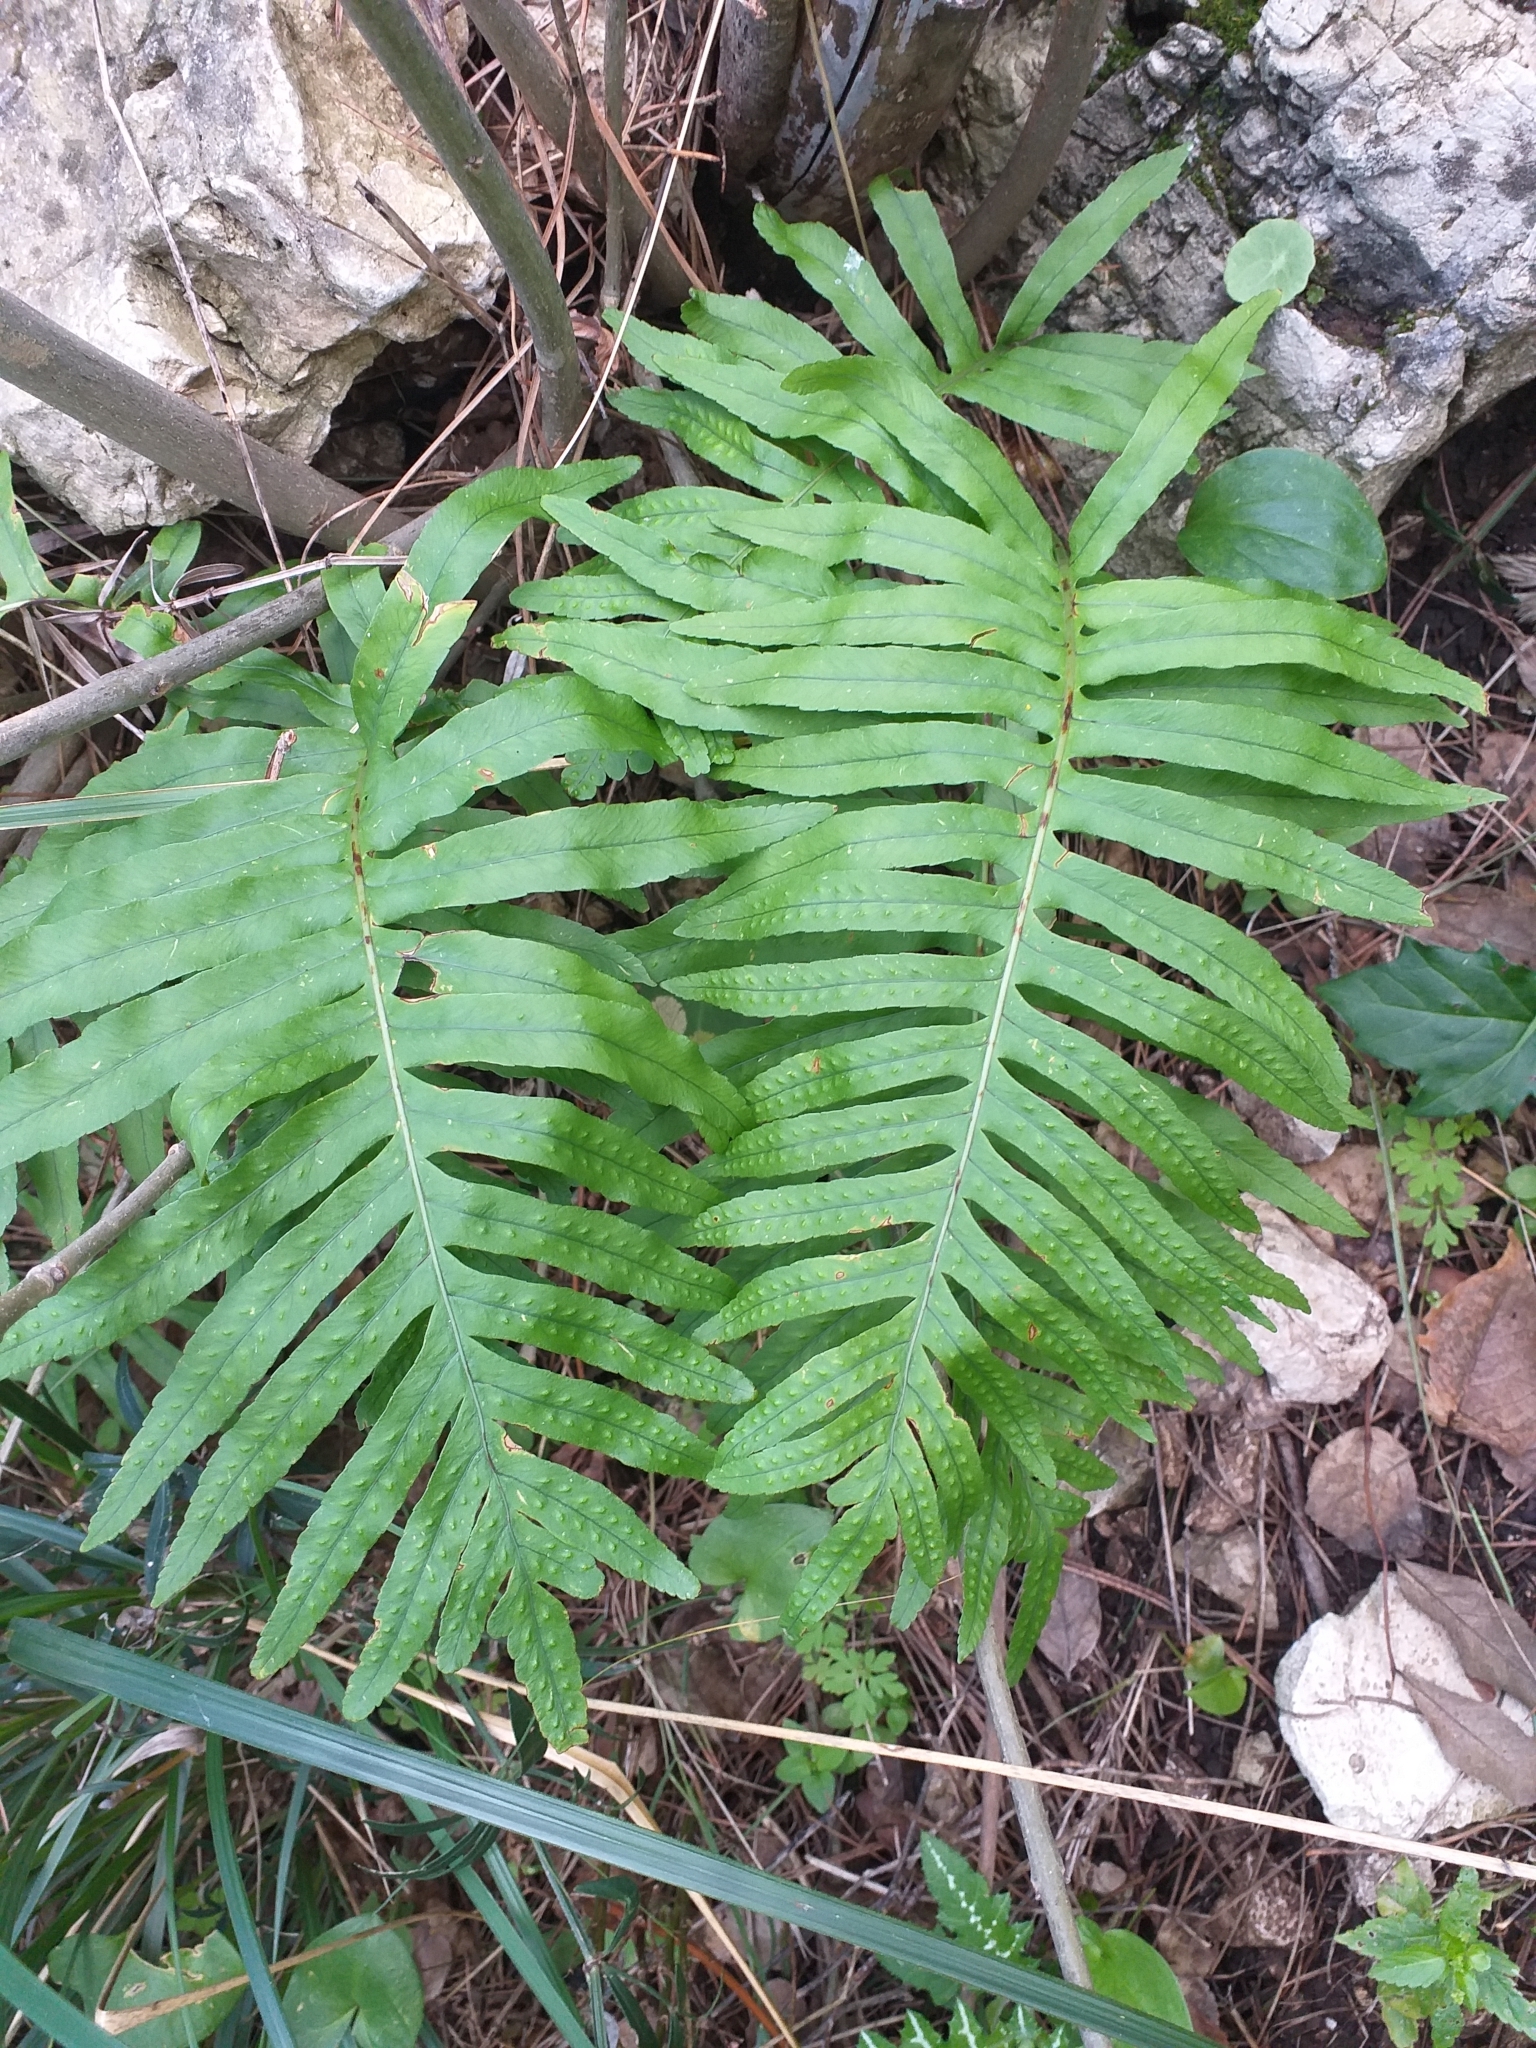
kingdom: Plantae
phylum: Tracheophyta
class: Polypodiopsida
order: Polypodiales
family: Polypodiaceae
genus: Polypodium
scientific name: Polypodium cambricum
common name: Southern polypody
